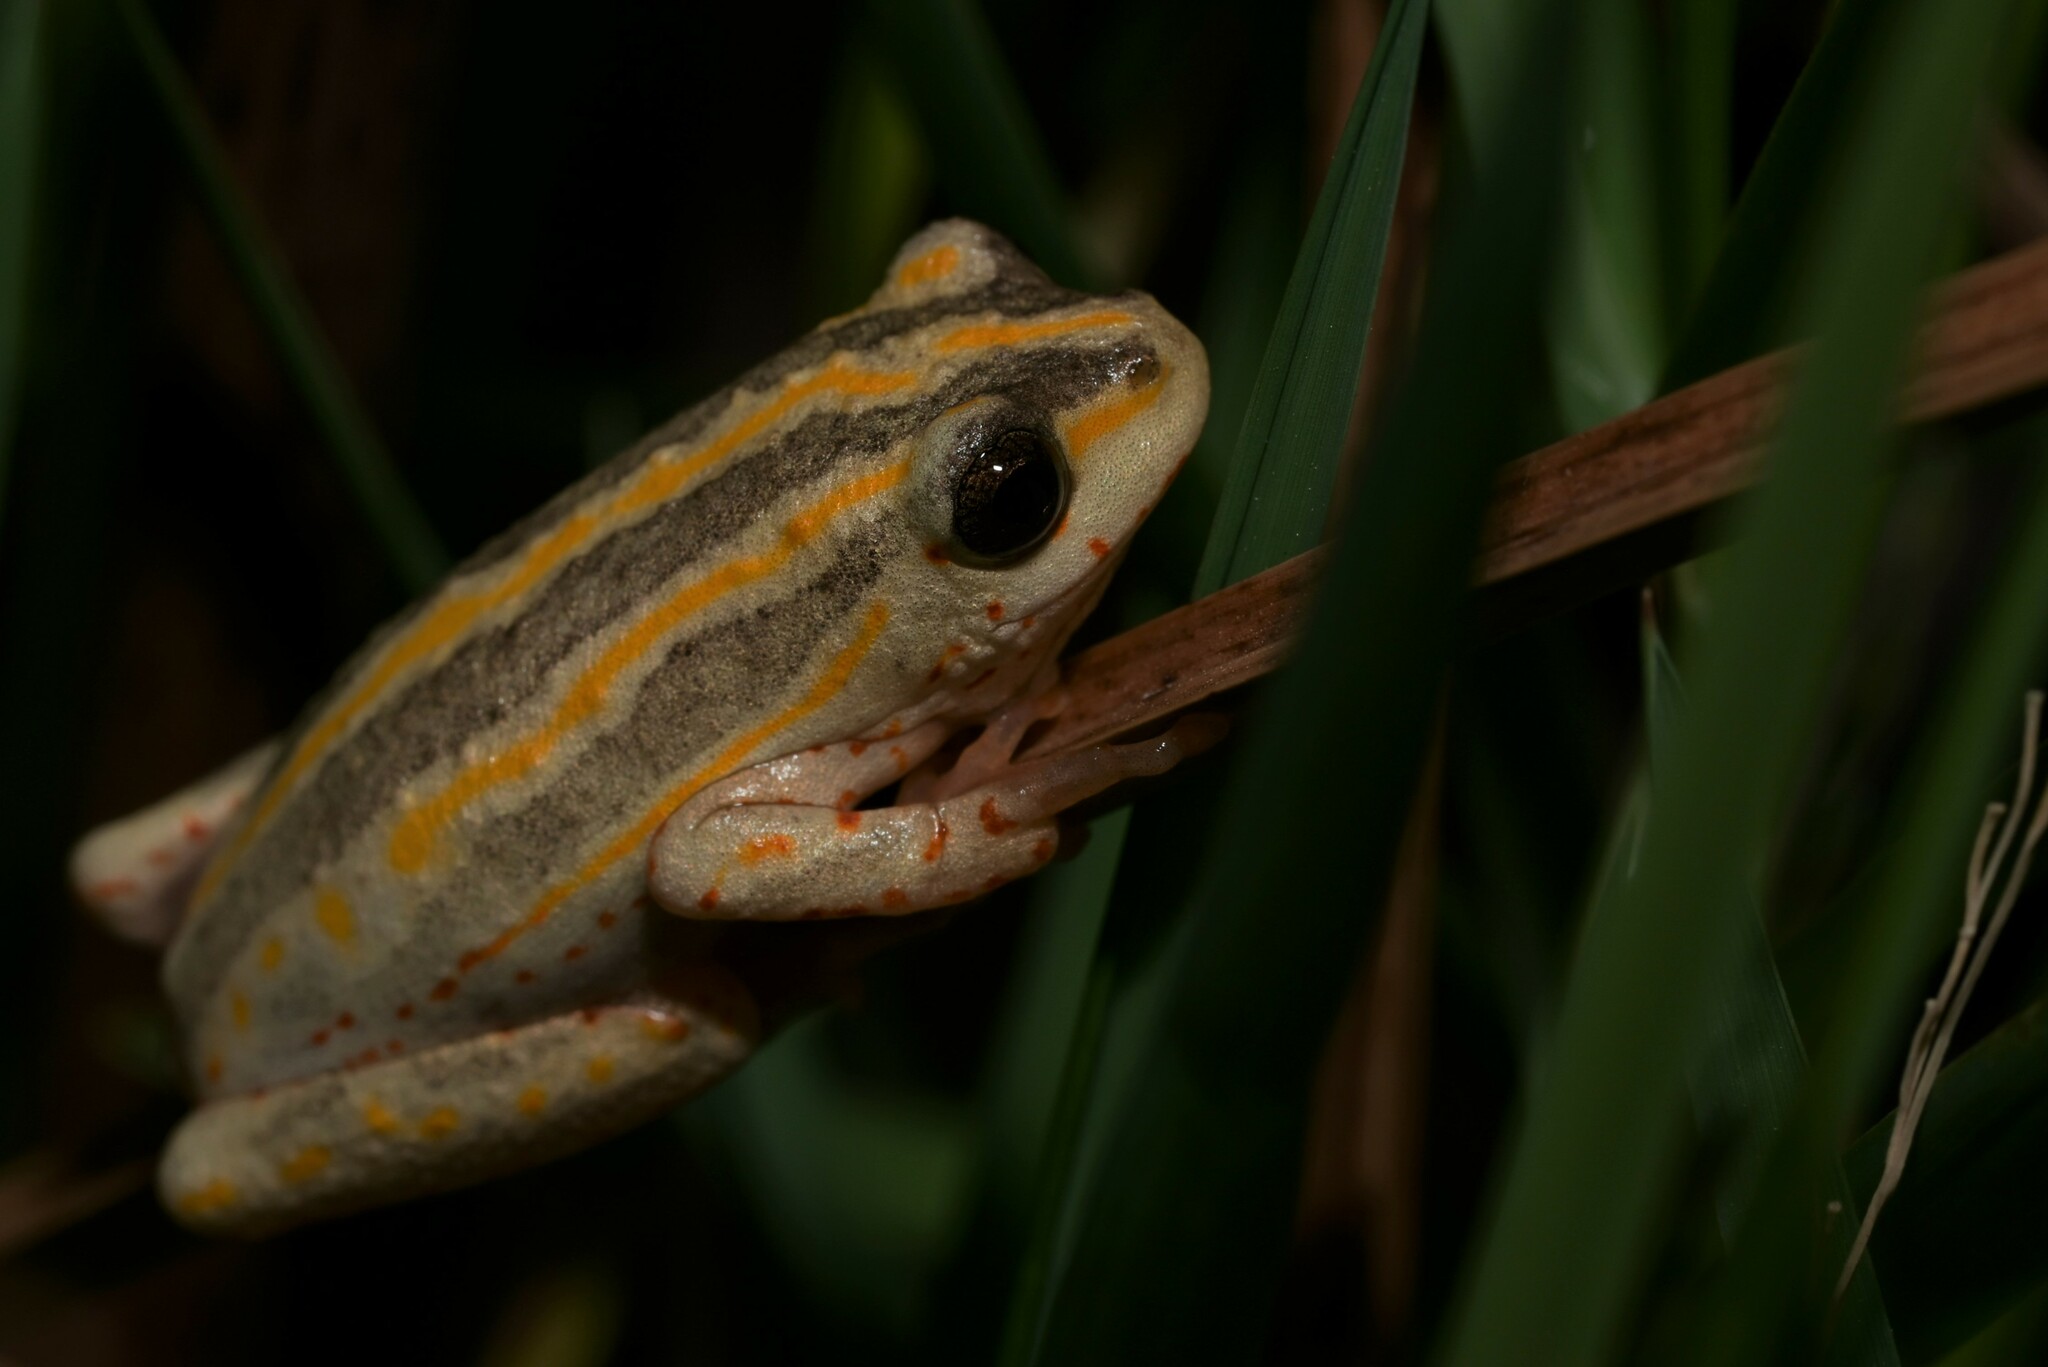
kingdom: Animalia
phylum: Chordata
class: Amphibia
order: Anura
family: Hyperoliidae
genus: Hyperolius
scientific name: Hyperolius marmoratus
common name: Painted reed frog
